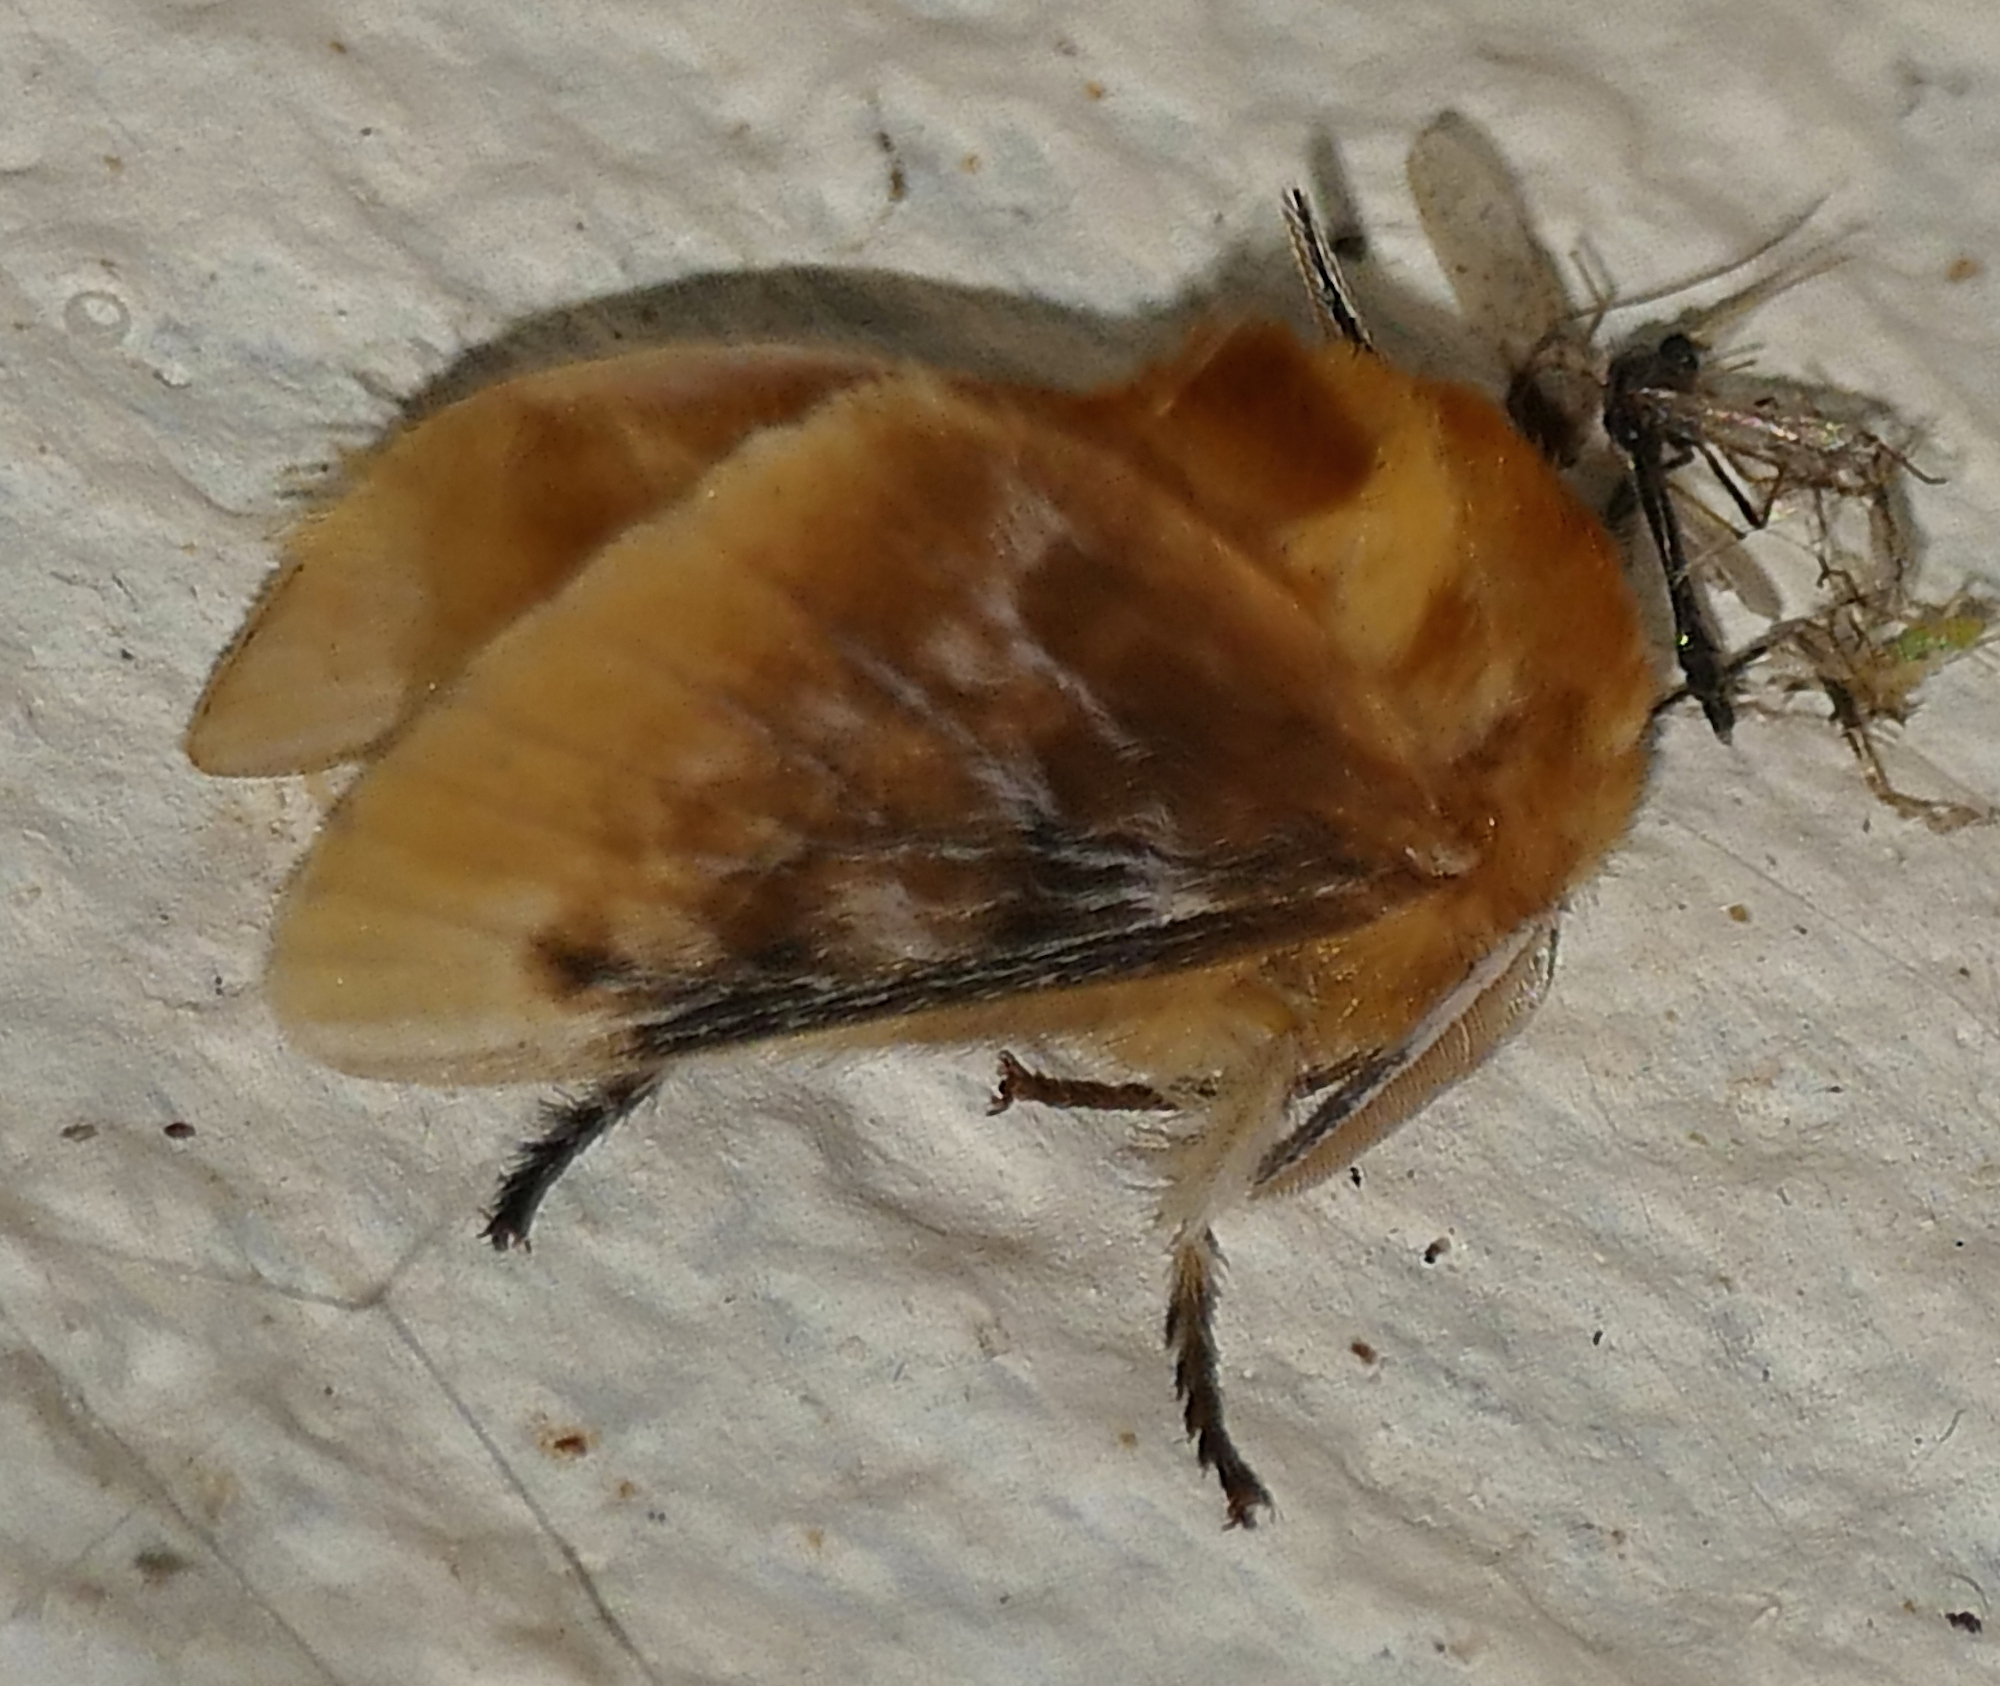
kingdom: Animalia
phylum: Arthropoda
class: Insecta
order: Lepidoptera
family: Megalopygidae
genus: Megalopyge
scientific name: Megalopyge opercularis
